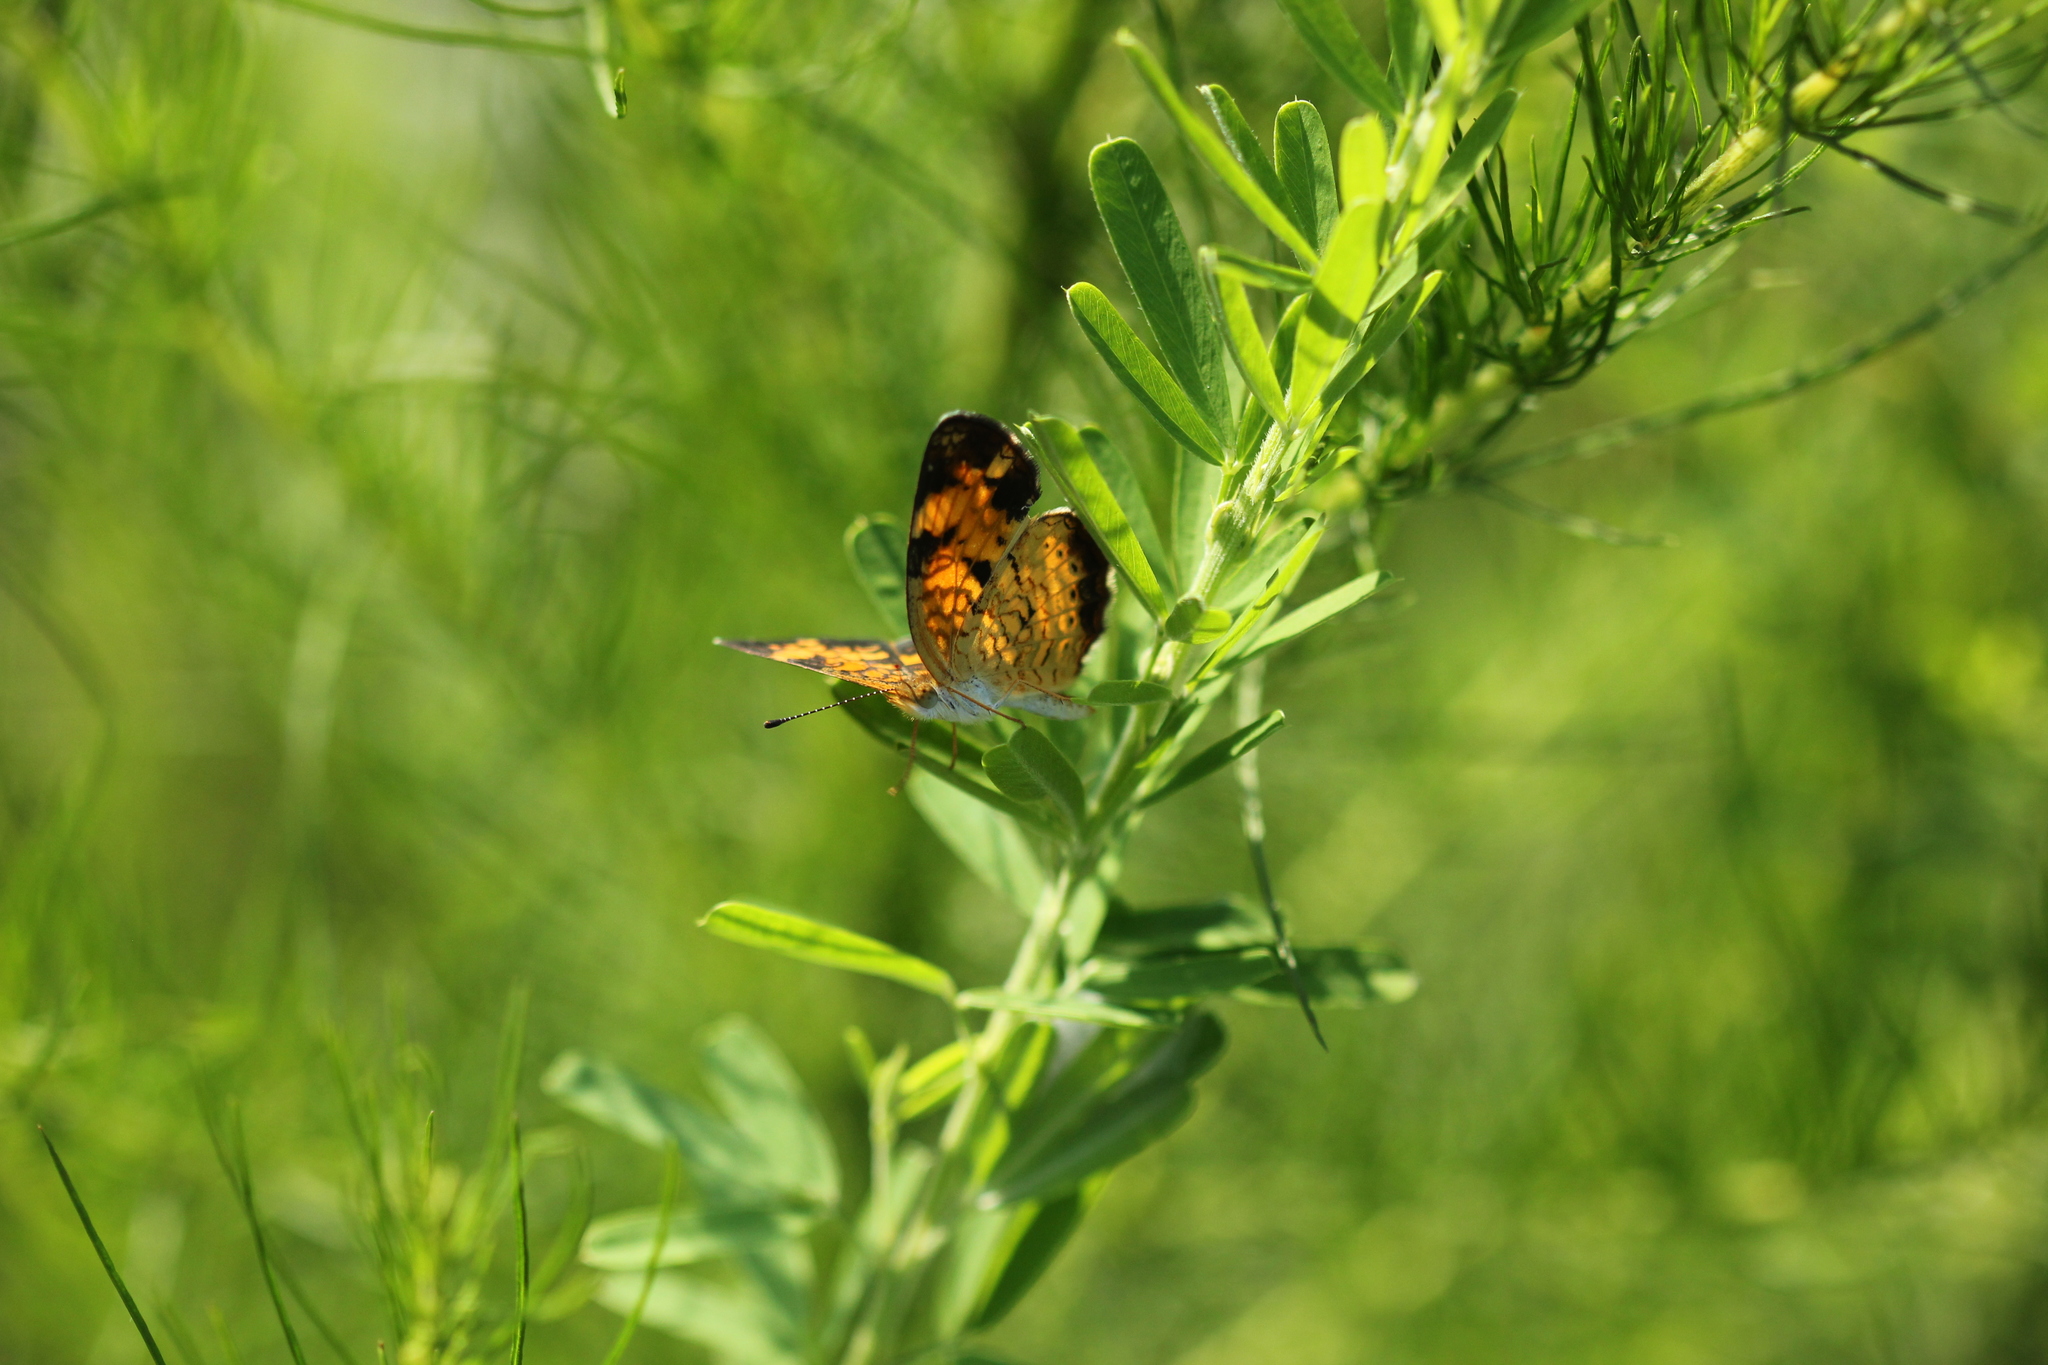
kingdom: Animalia
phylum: Arthropoda
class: Insecta
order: Lepidoptera
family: Nymphalidae
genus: Phyciodes
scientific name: Phyciodes tharos
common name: Pearl crescent
